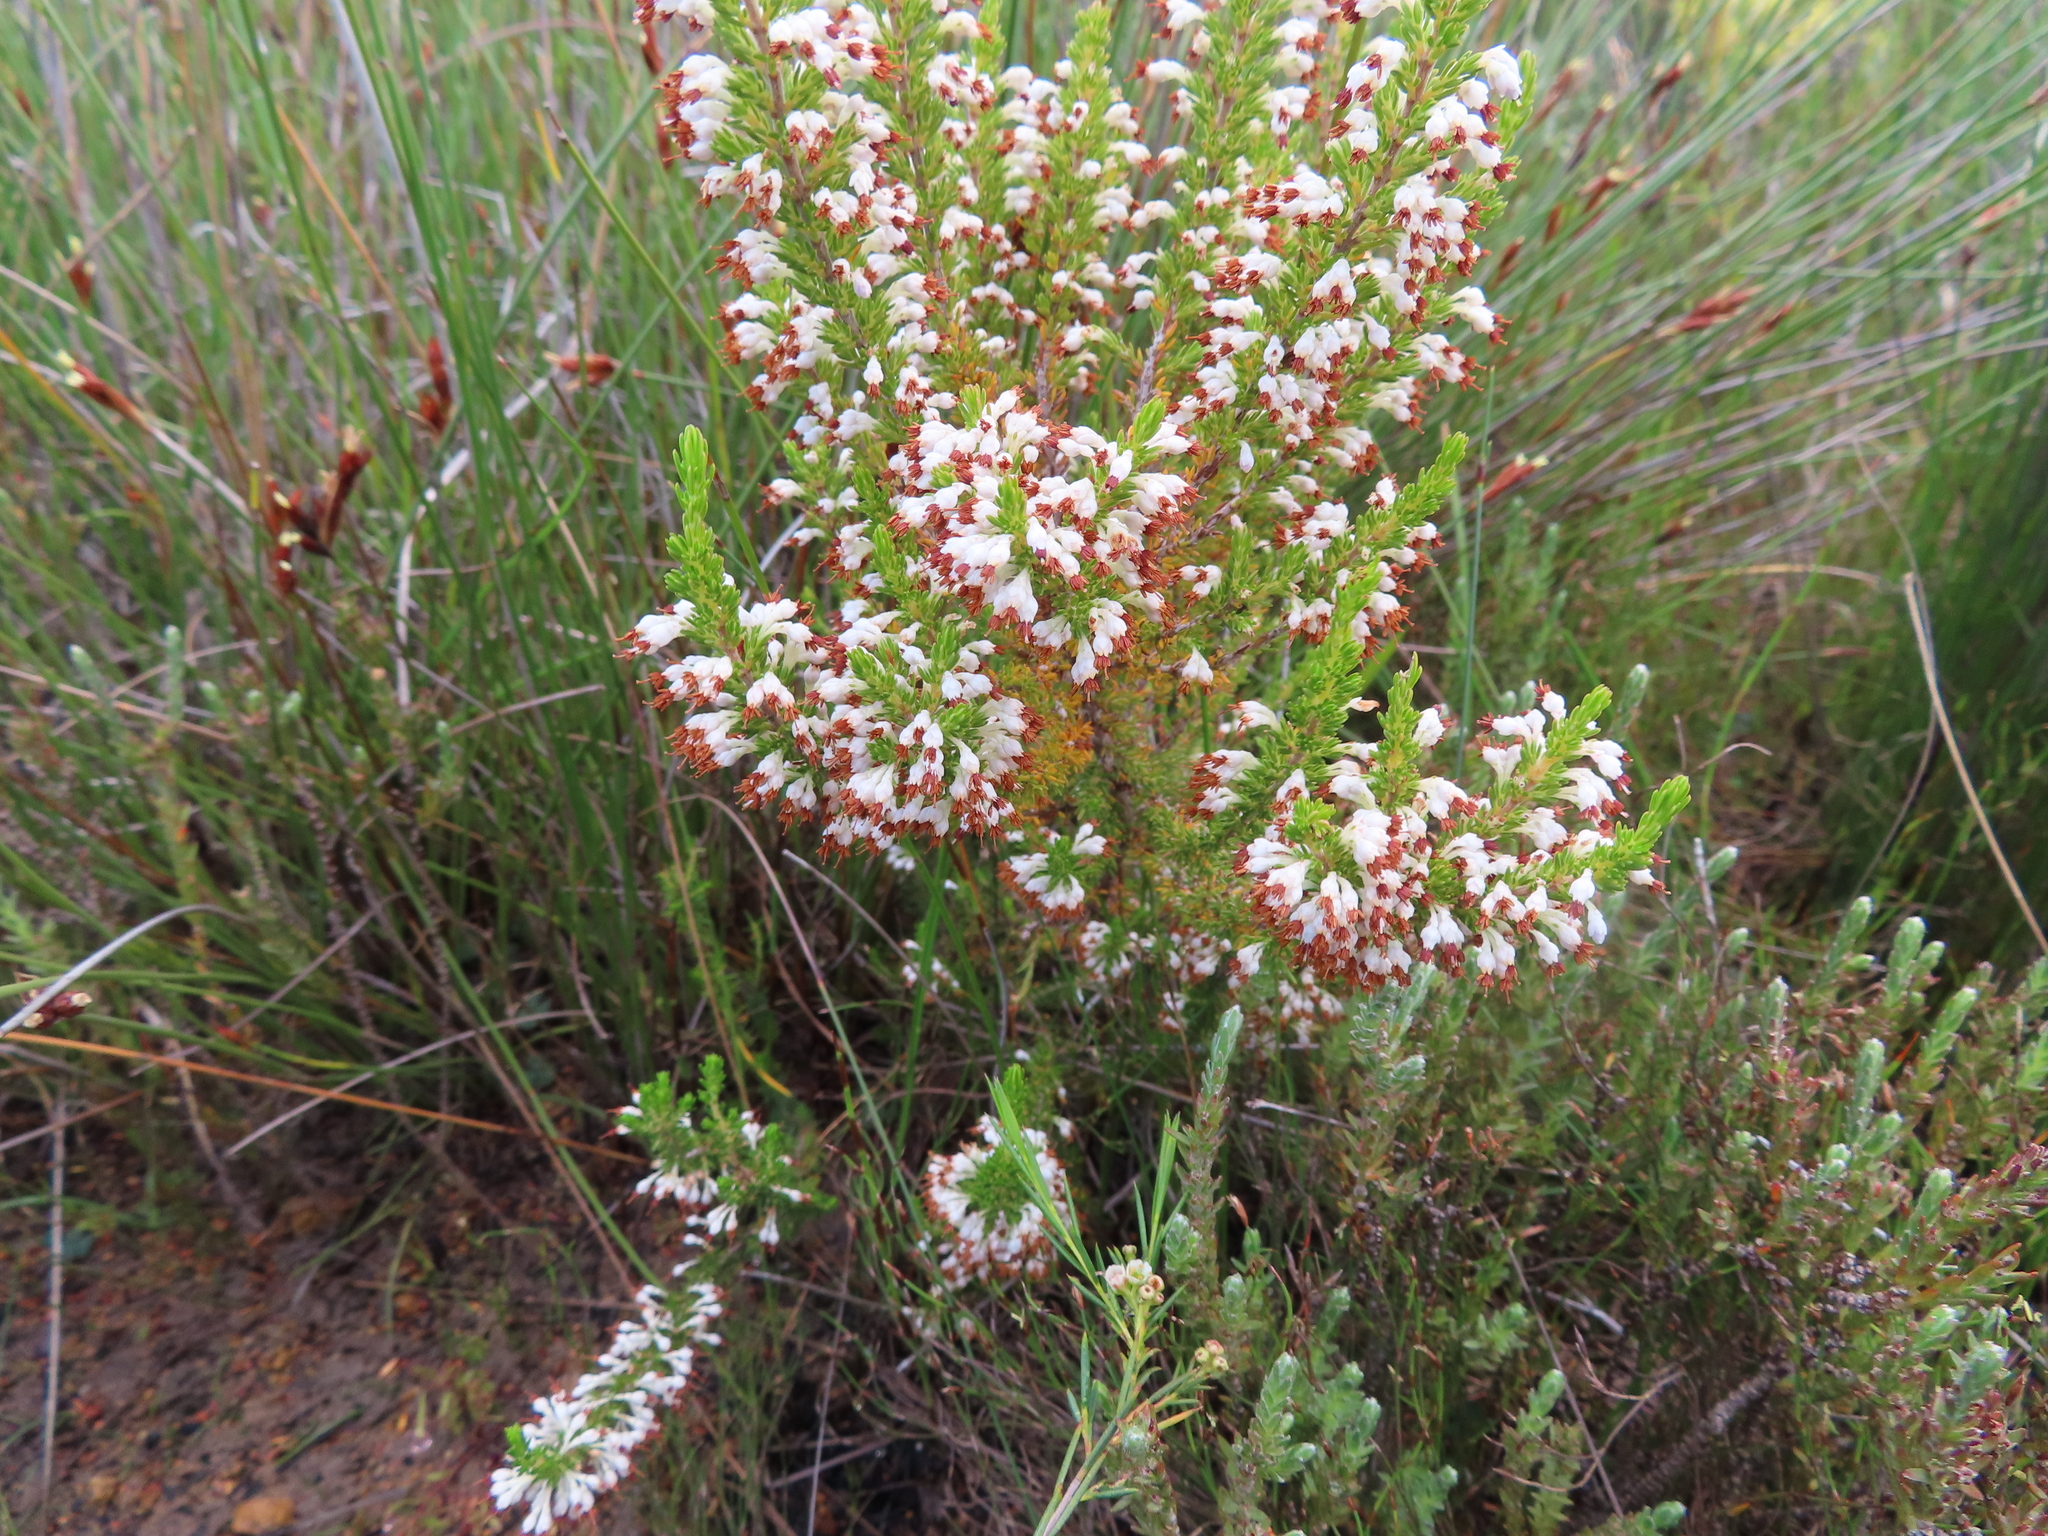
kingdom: Plantae
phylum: Tracheophyta
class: Magnoliopsida
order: Ericales
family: Ericaceae
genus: Erica
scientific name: Erica imbricata
